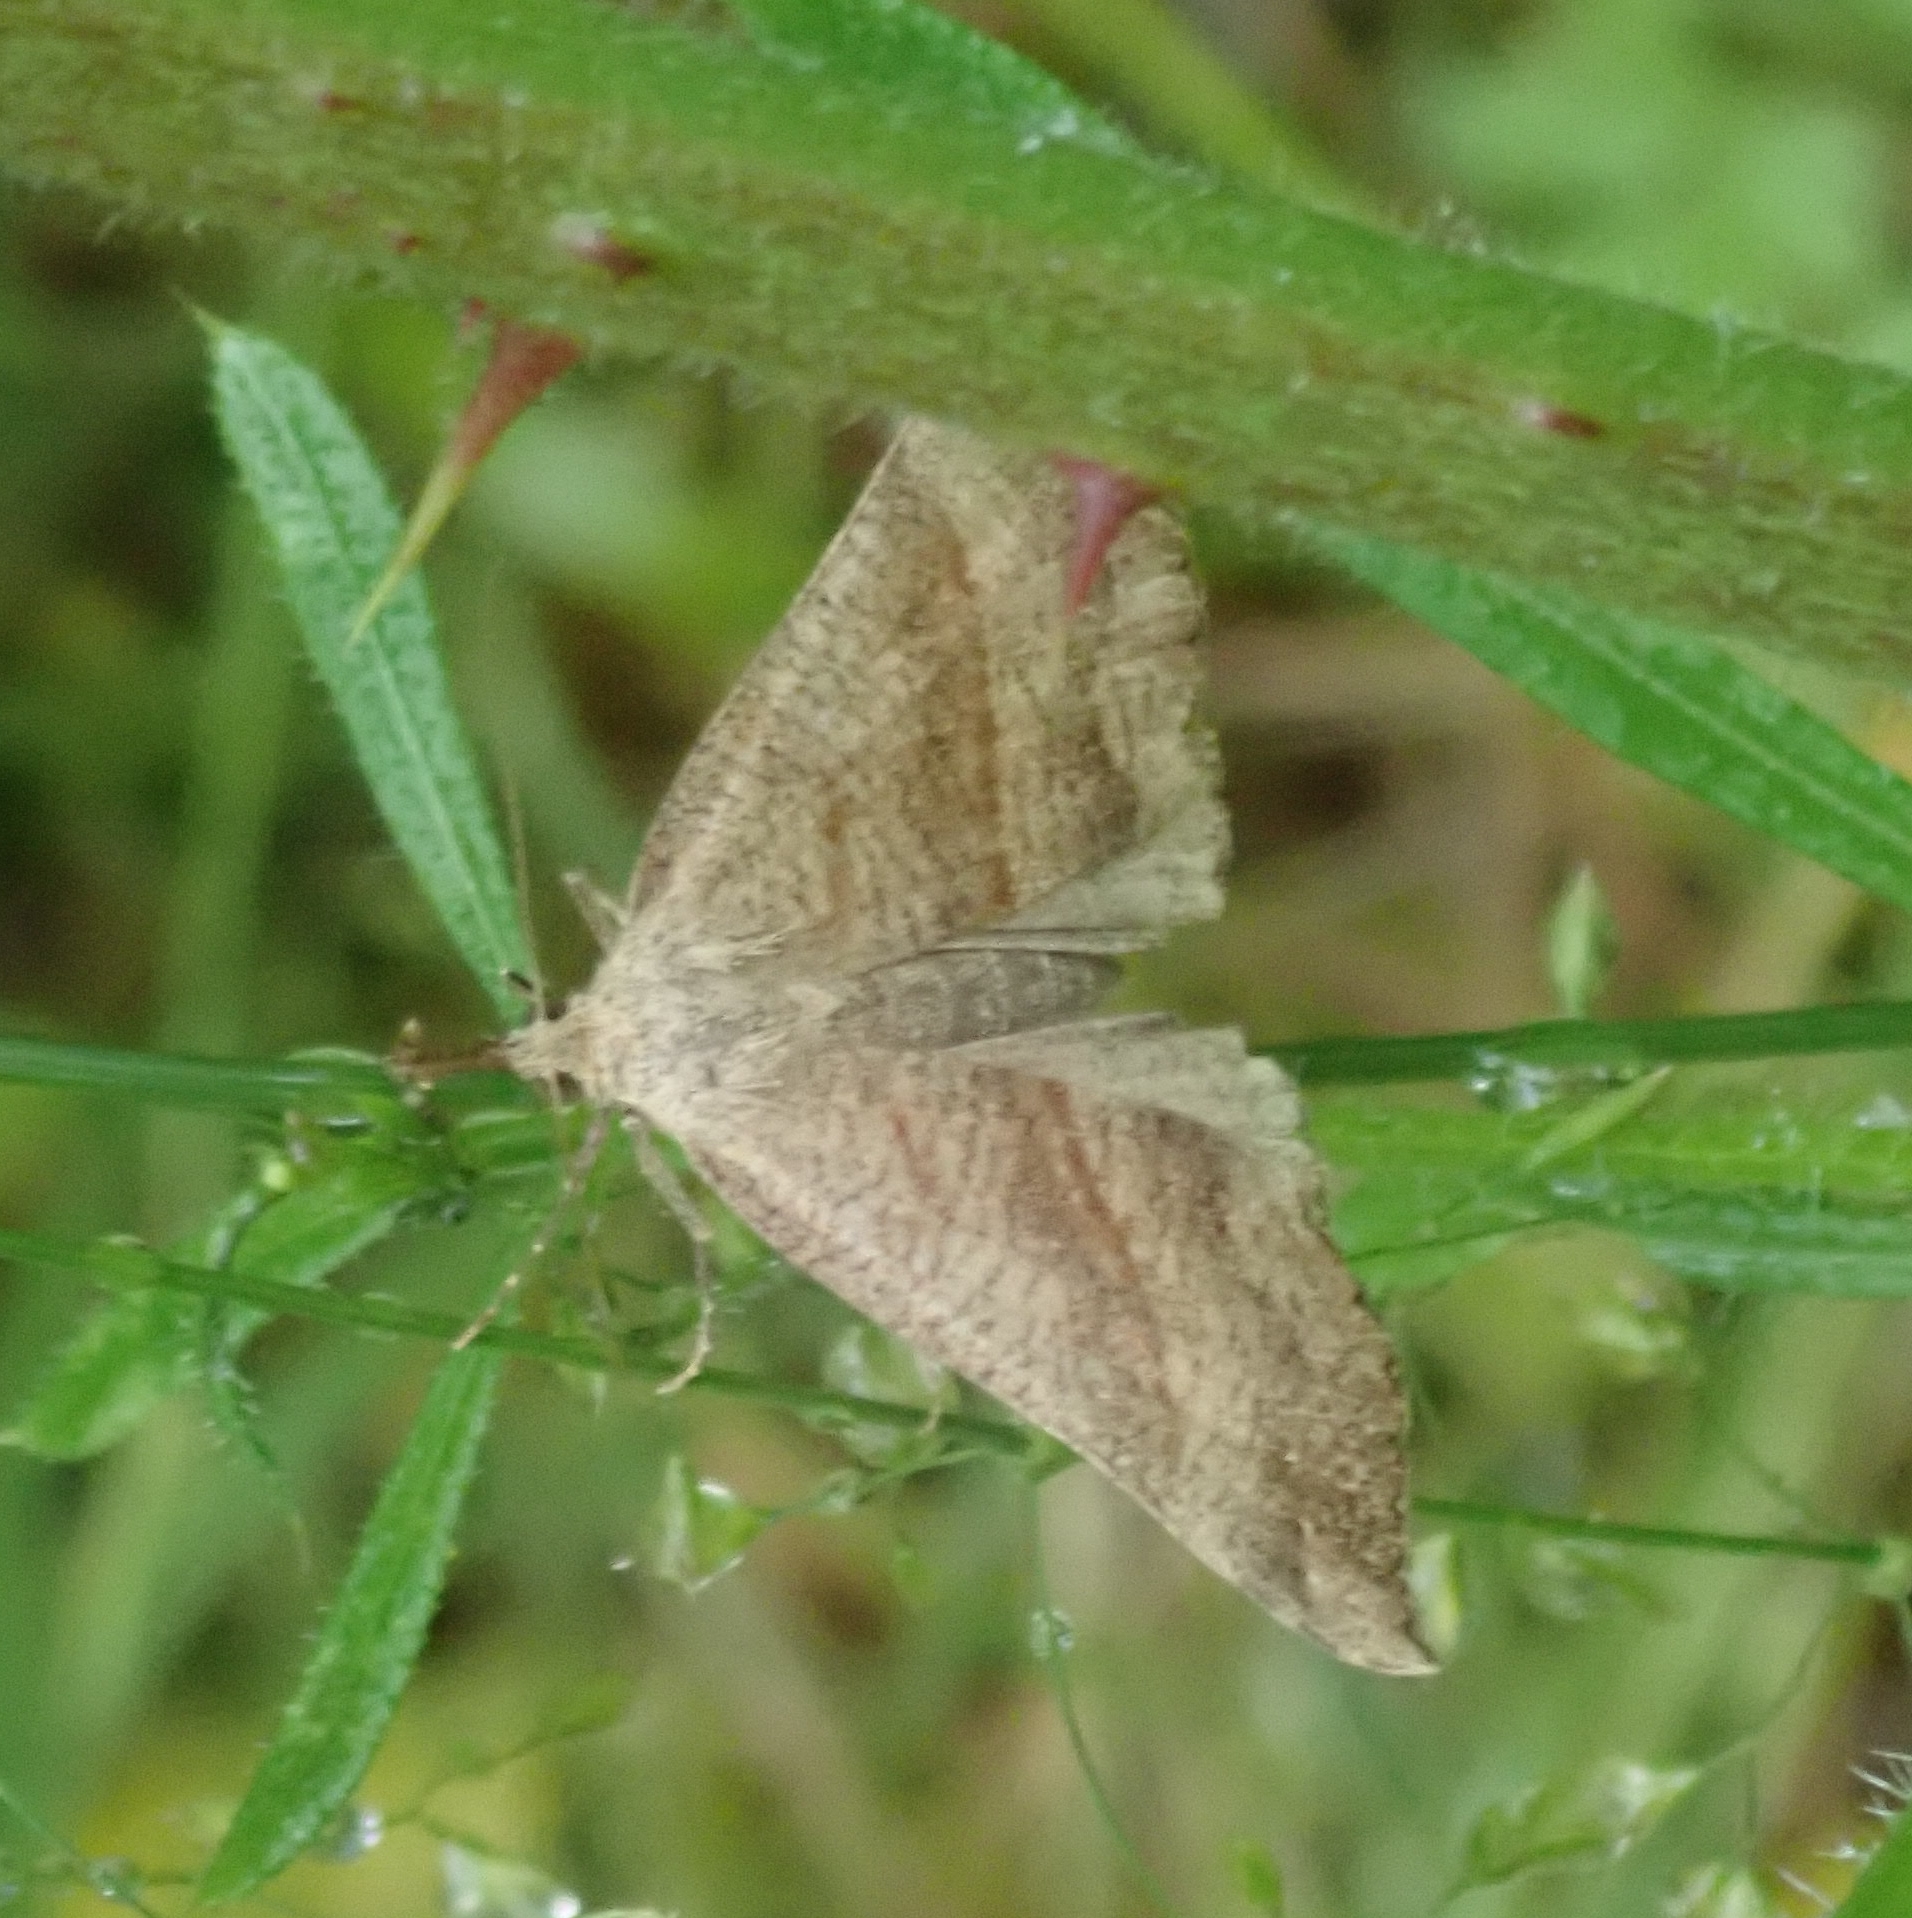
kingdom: Animalia
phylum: Arthropoda
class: Insecta
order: Lepidoptera
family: Erebidae
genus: Hypena
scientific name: Hypena proboscidalis
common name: Snout
